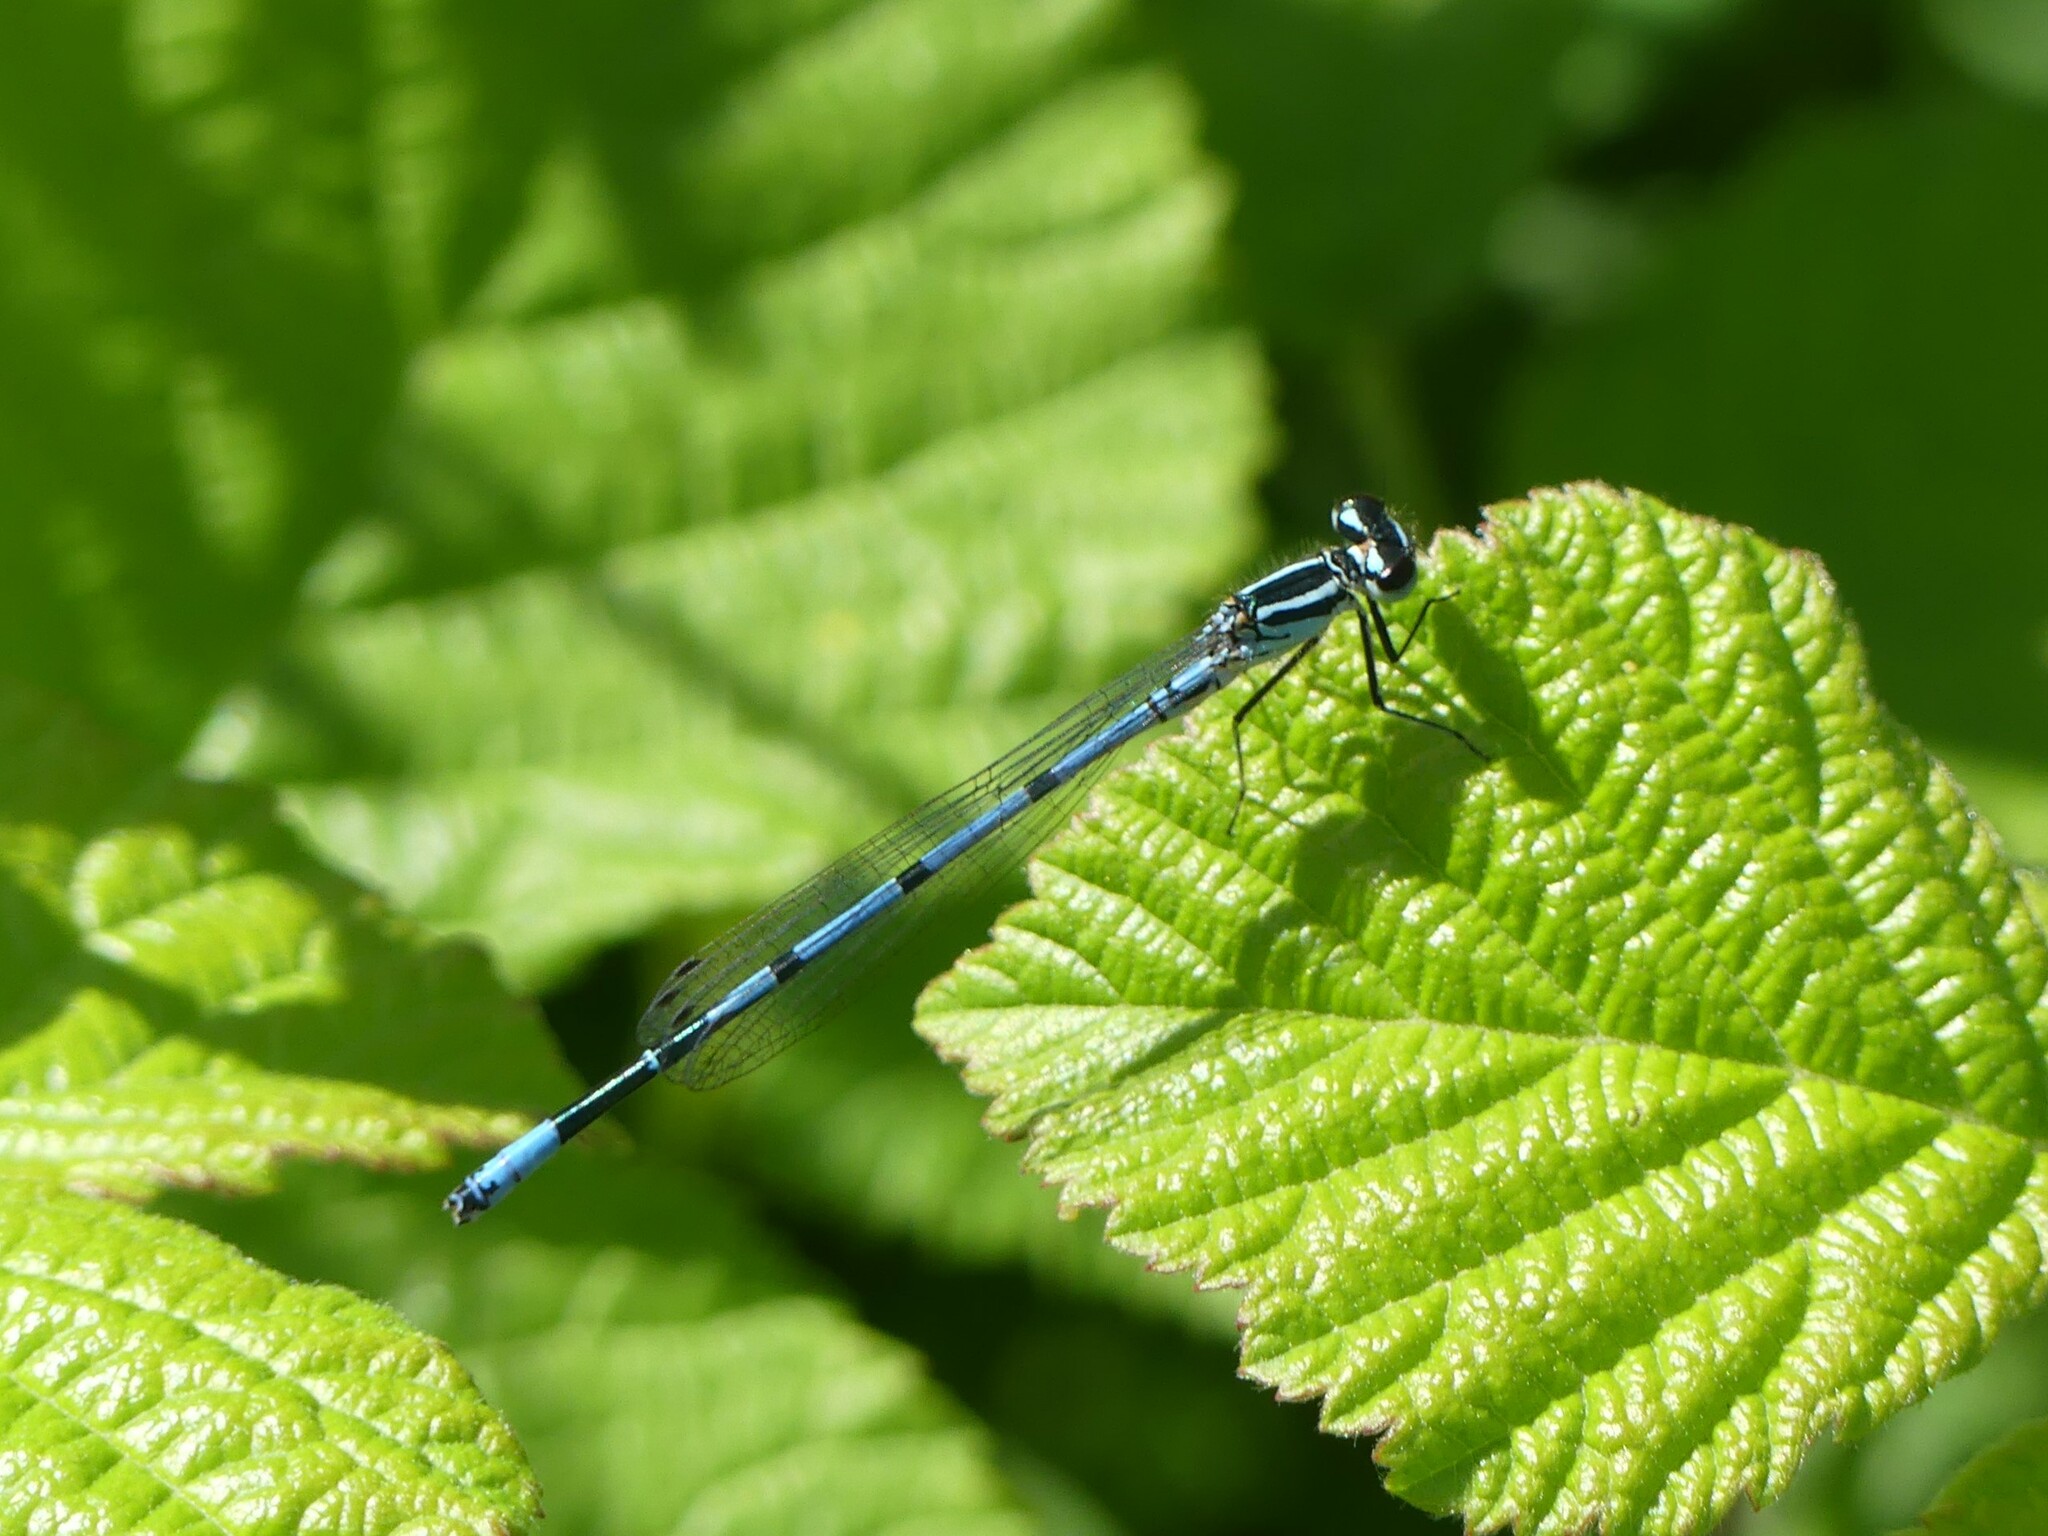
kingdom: Animalia
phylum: Arthropoda
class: Insecta
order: Odonata
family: Coenagrionidae
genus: Coenagrion
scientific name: Coenagrion puella
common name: Azure damselfly
